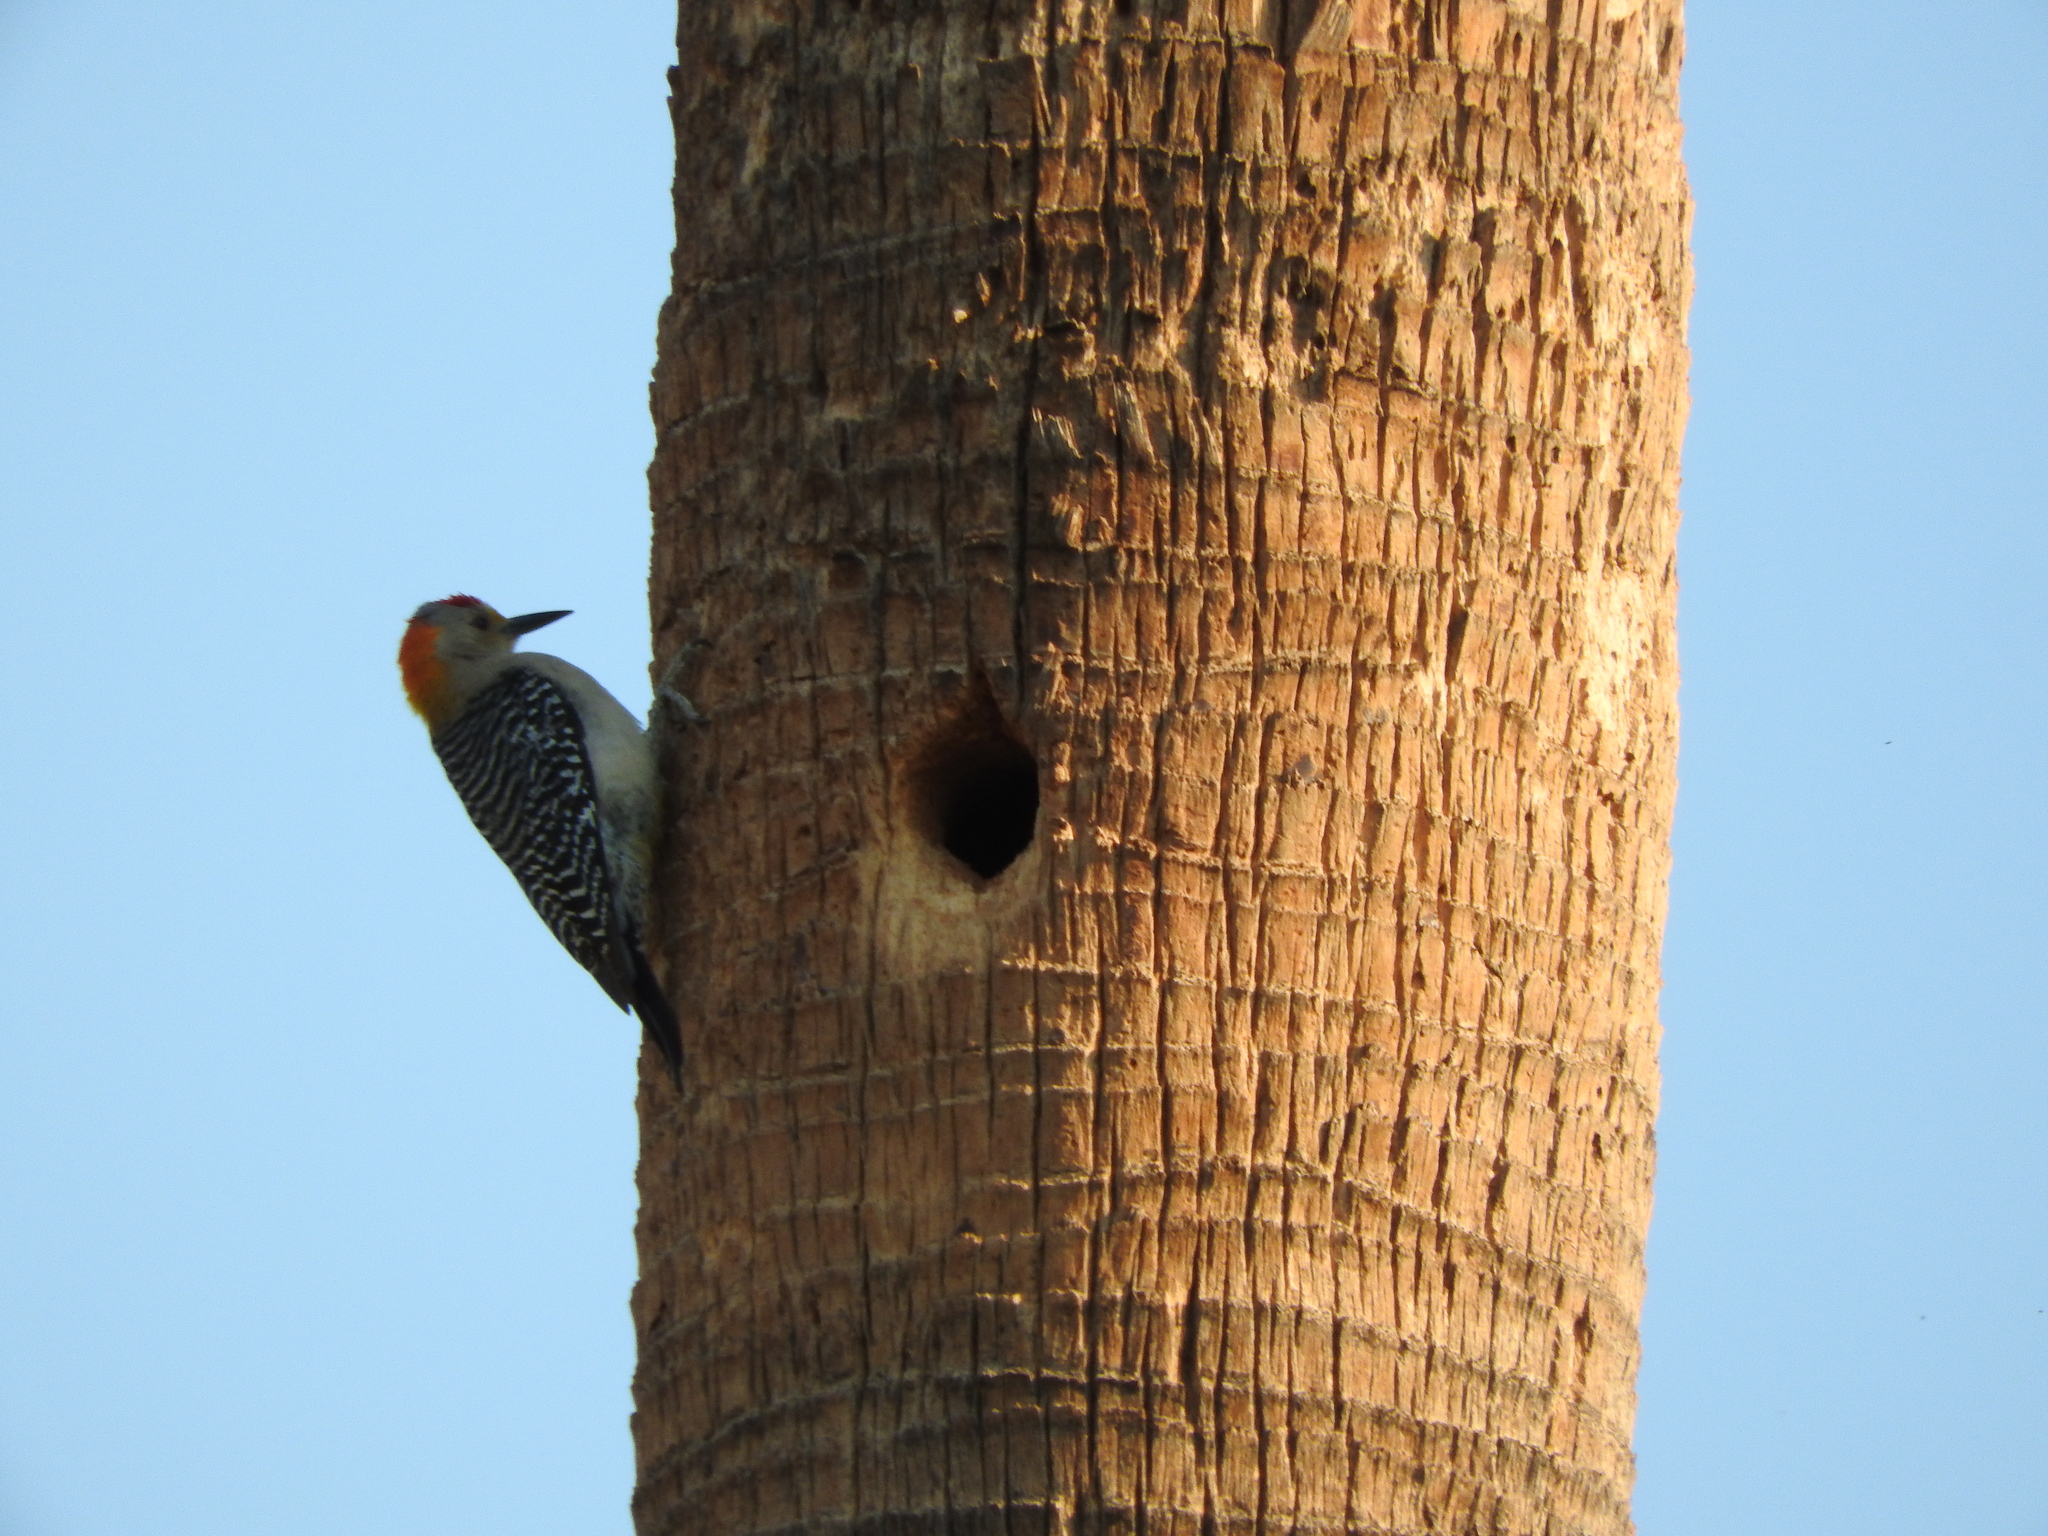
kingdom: Animalia
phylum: Chordata
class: Aves
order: Piciformes
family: Picidae
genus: Melanerpes
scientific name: Melanerpes aurifrons
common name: Golden-fronted woodpecker
